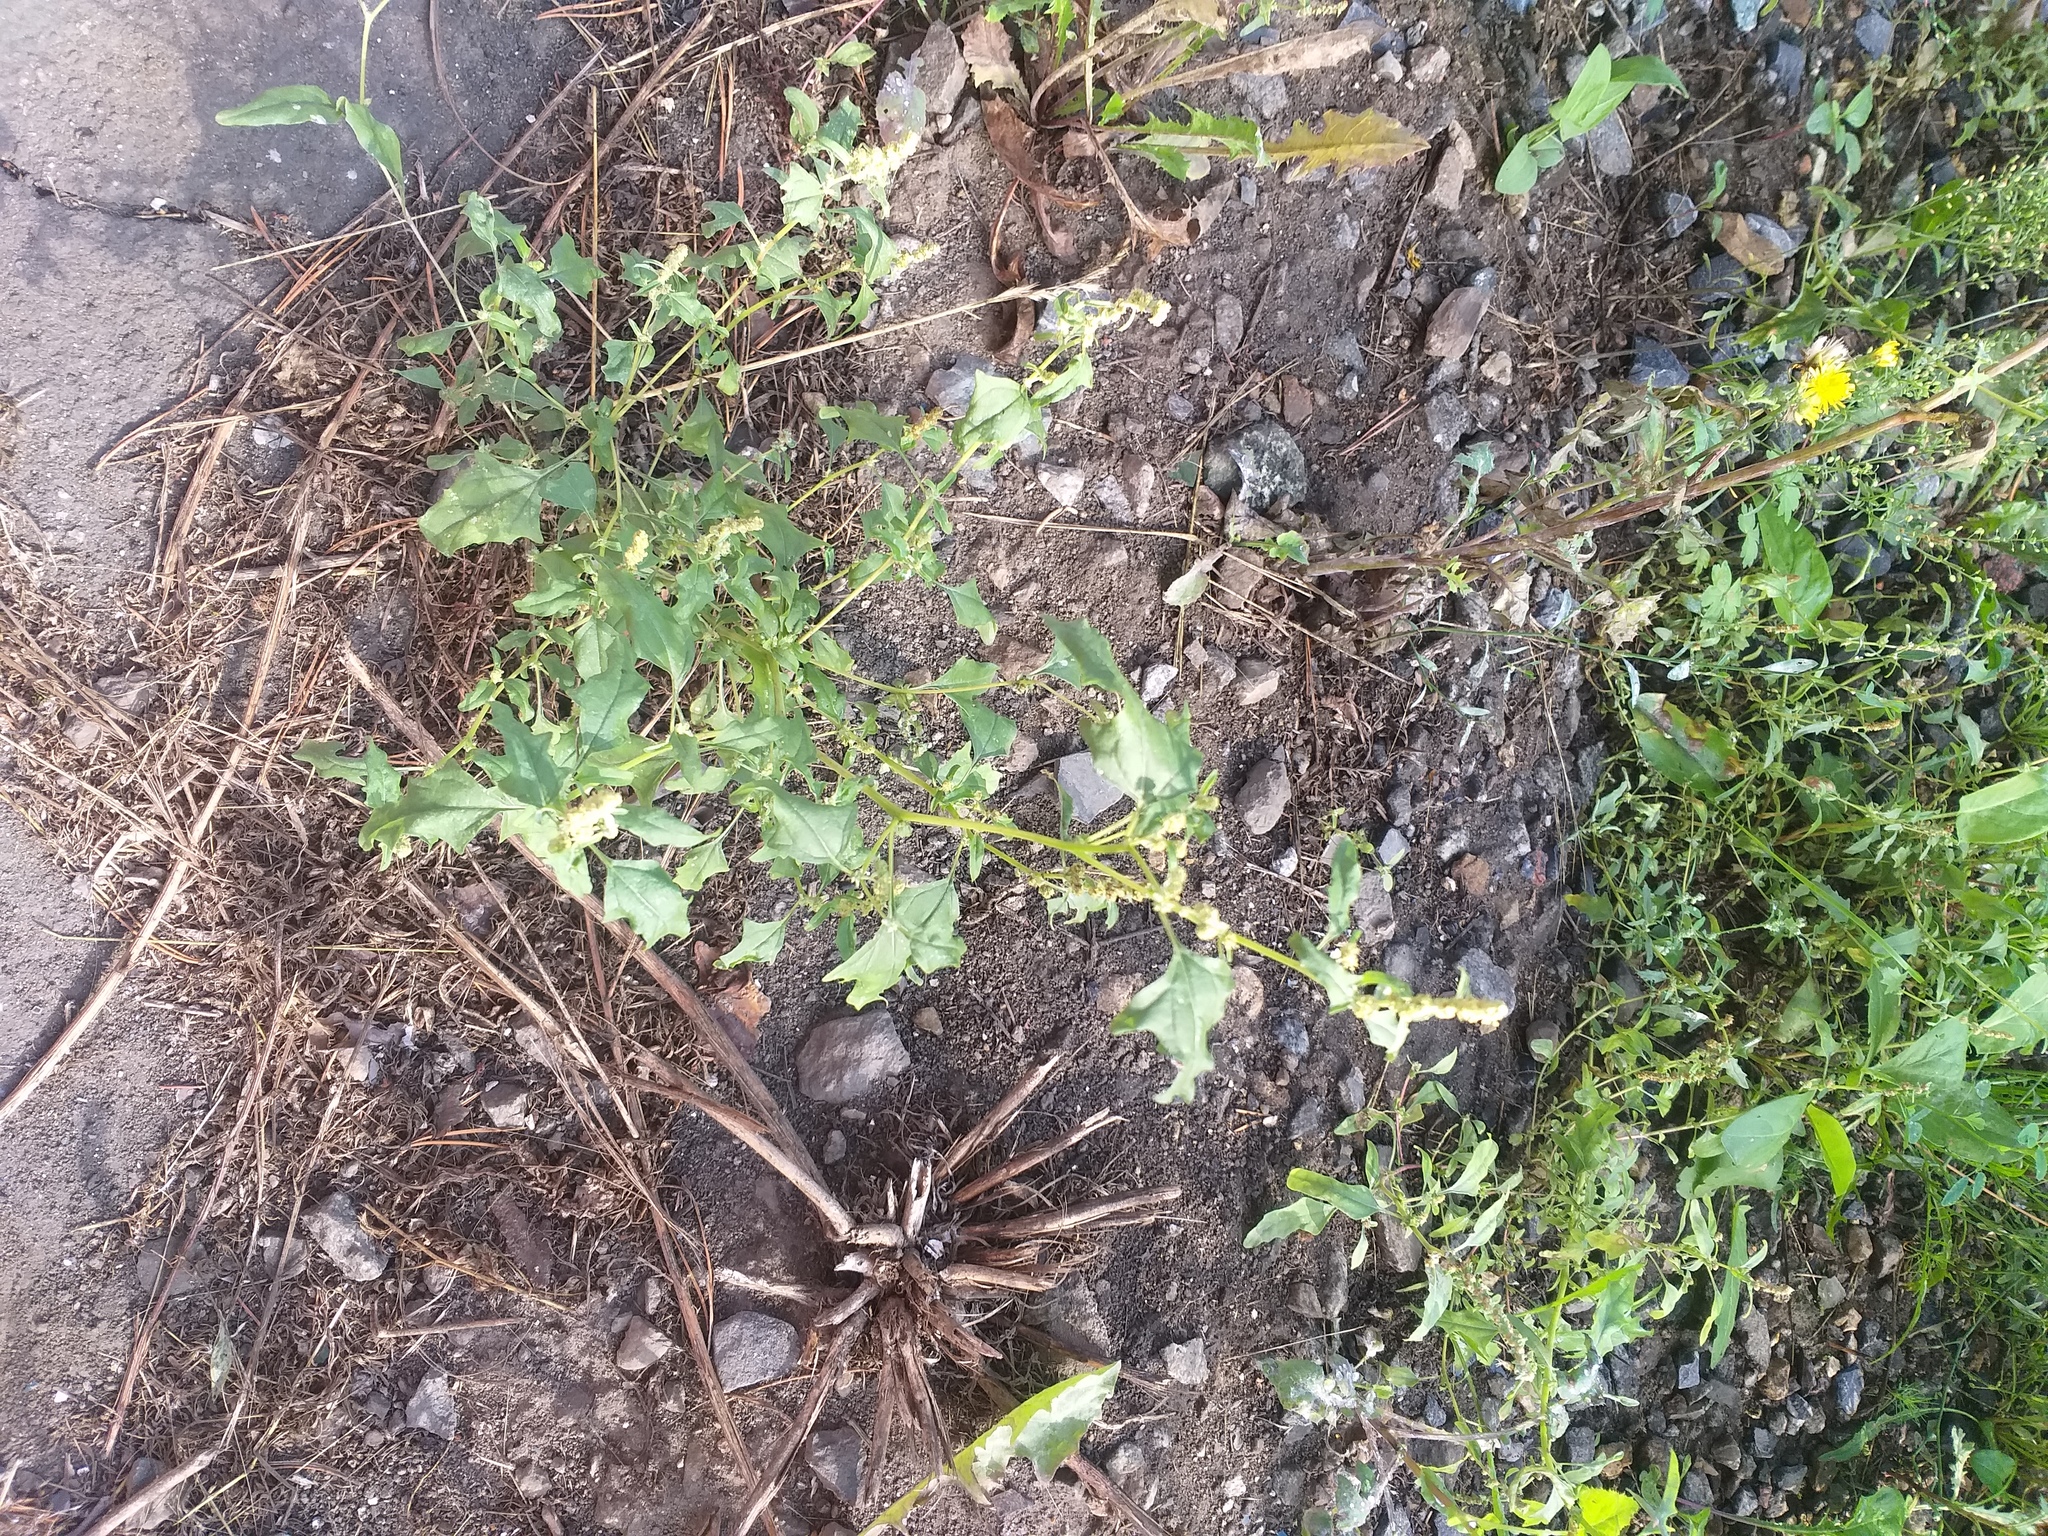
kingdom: Plantae
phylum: Tracheophyta
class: Magnoliopsida
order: Caryophyllales
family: Amaranthaceae
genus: Atriplex
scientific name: Atriplex tatarica
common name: Tatarian orache
